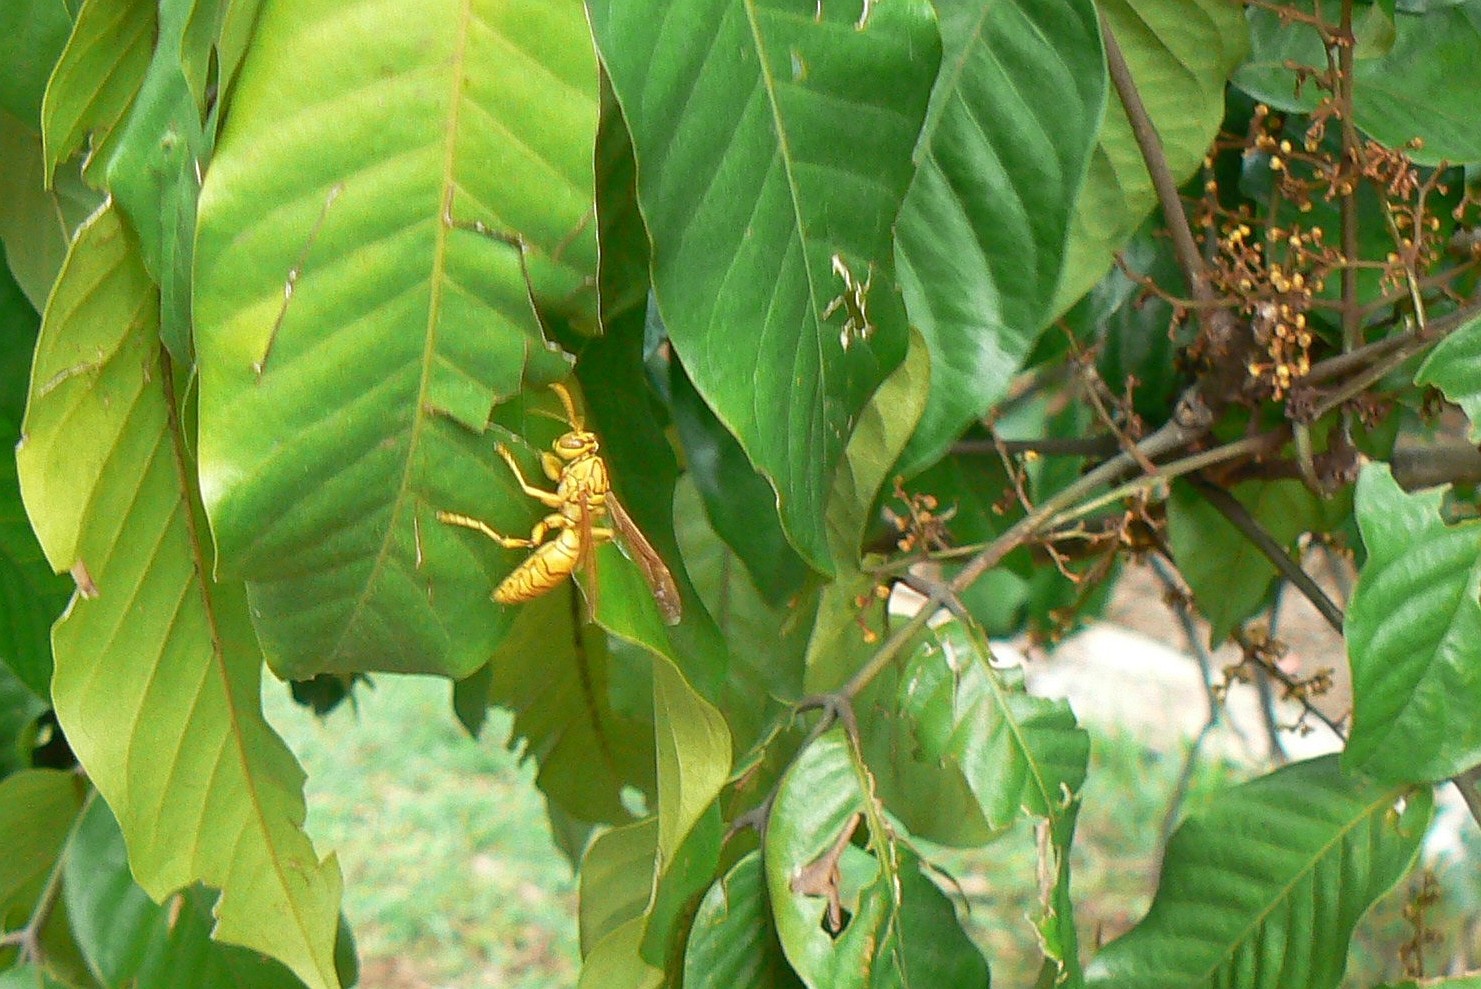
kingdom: Animalia
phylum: Arthropoda
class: Insecta
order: Hymenoptera
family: Eumenidae
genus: Polistes
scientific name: Polistes olivaceus
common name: Paper wasp
